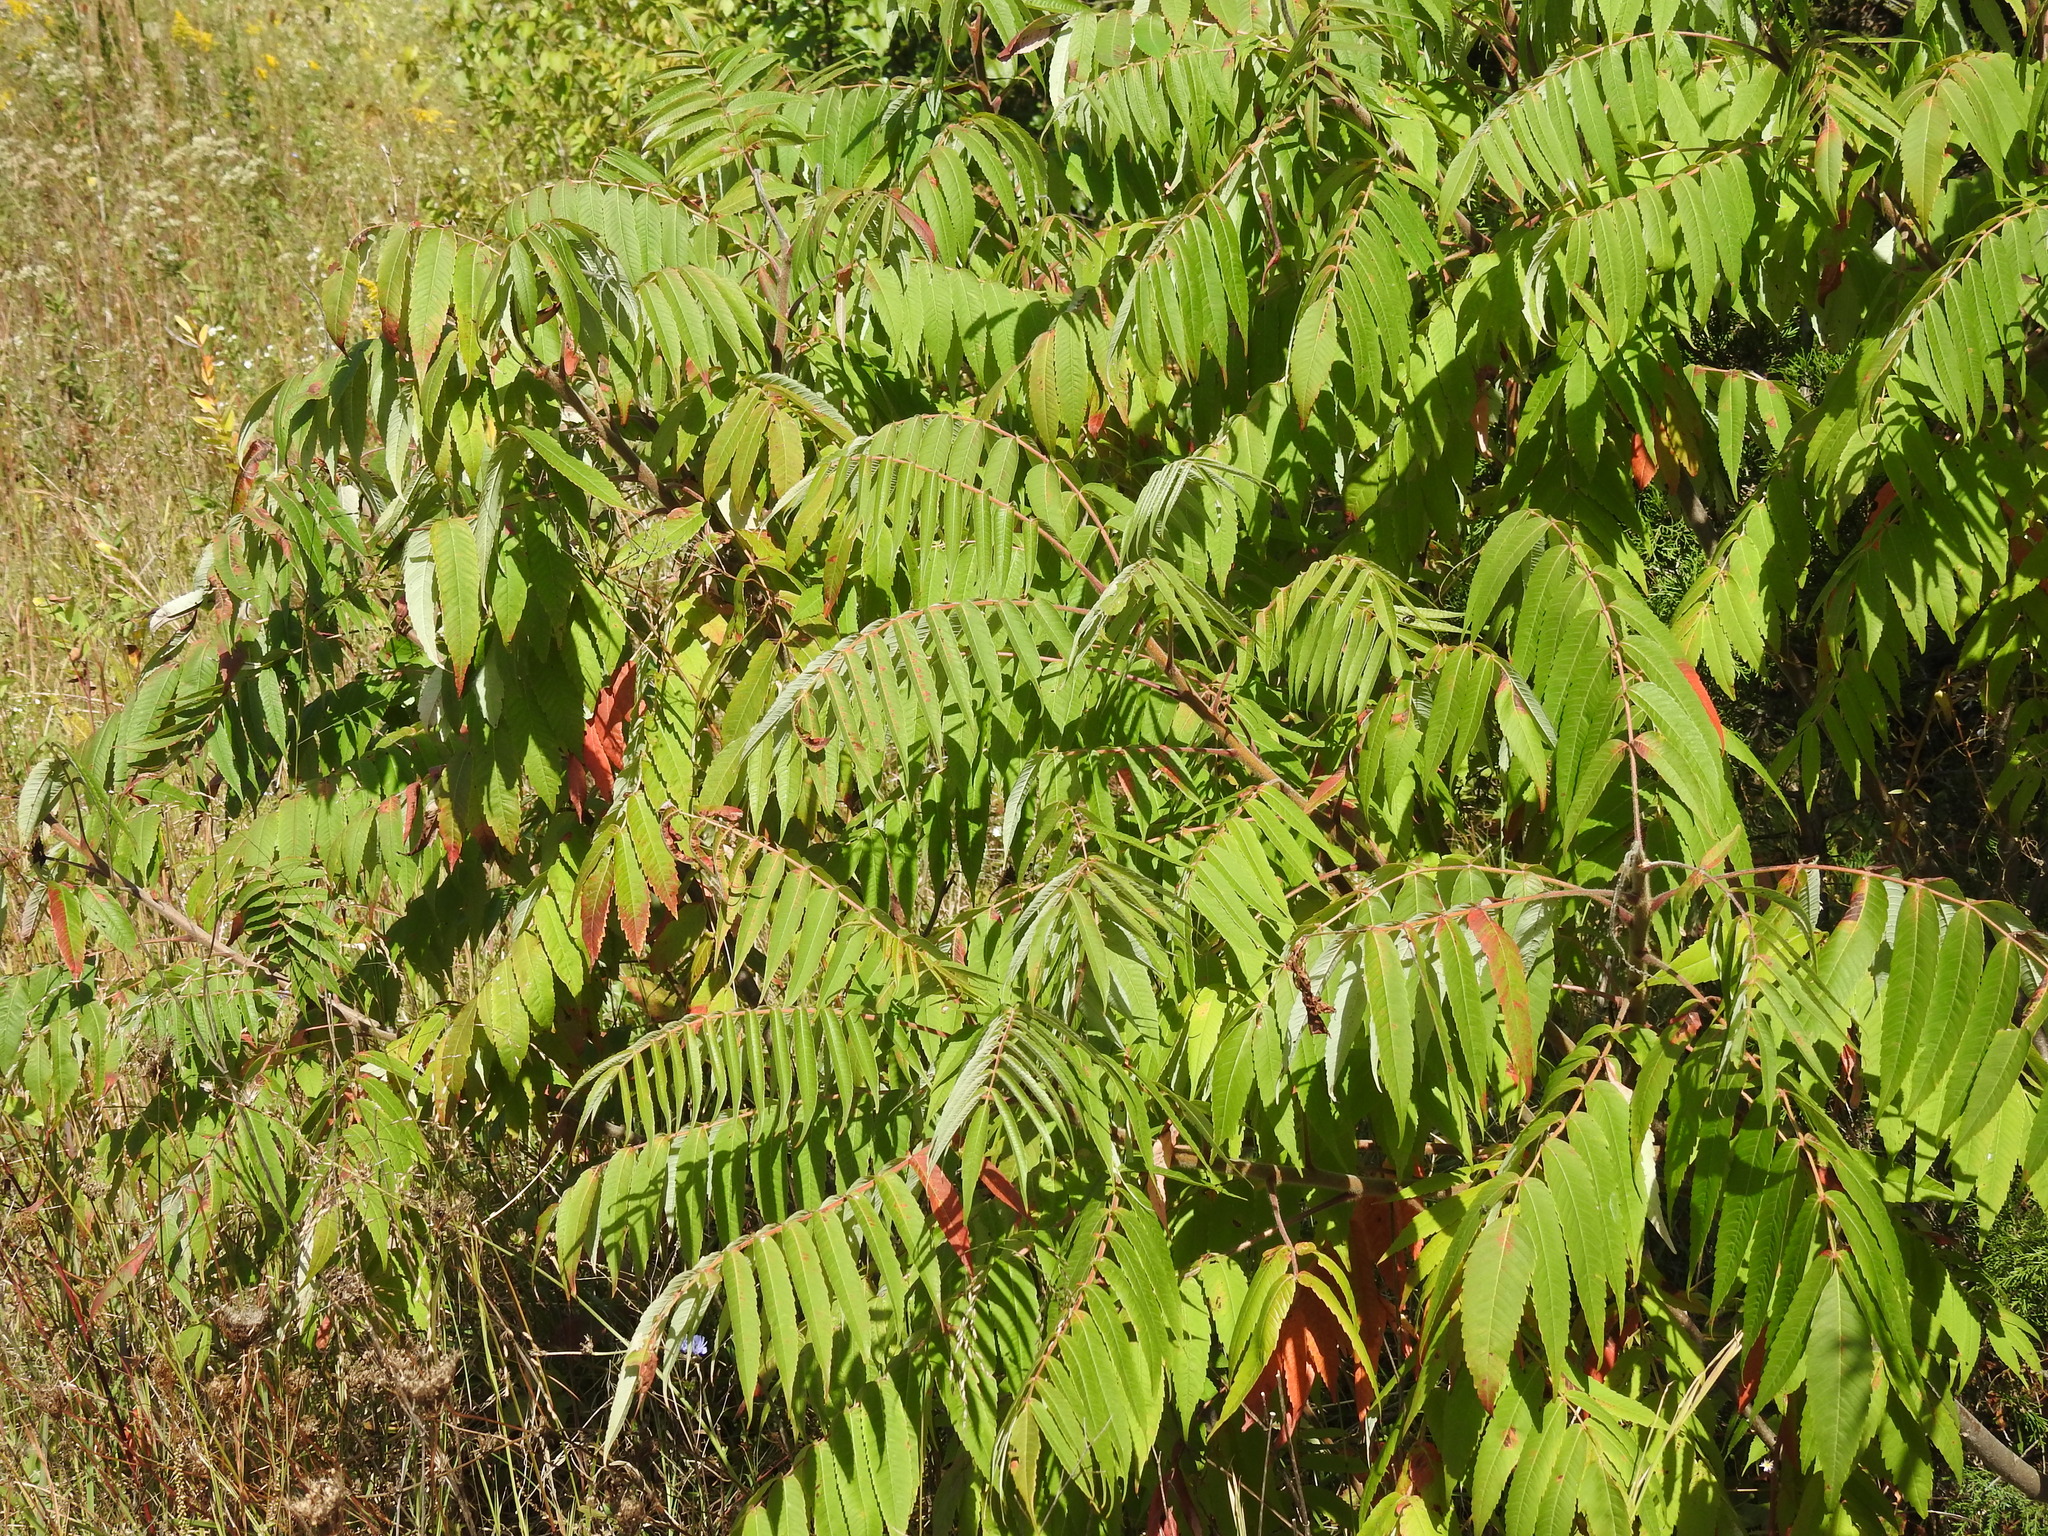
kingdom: Plantae
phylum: Tracheophyta
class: Magnoliopsida
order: Sapindales
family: Anacardiaceae
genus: Rhus
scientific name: Rhus typhina
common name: Staghorn sumac
